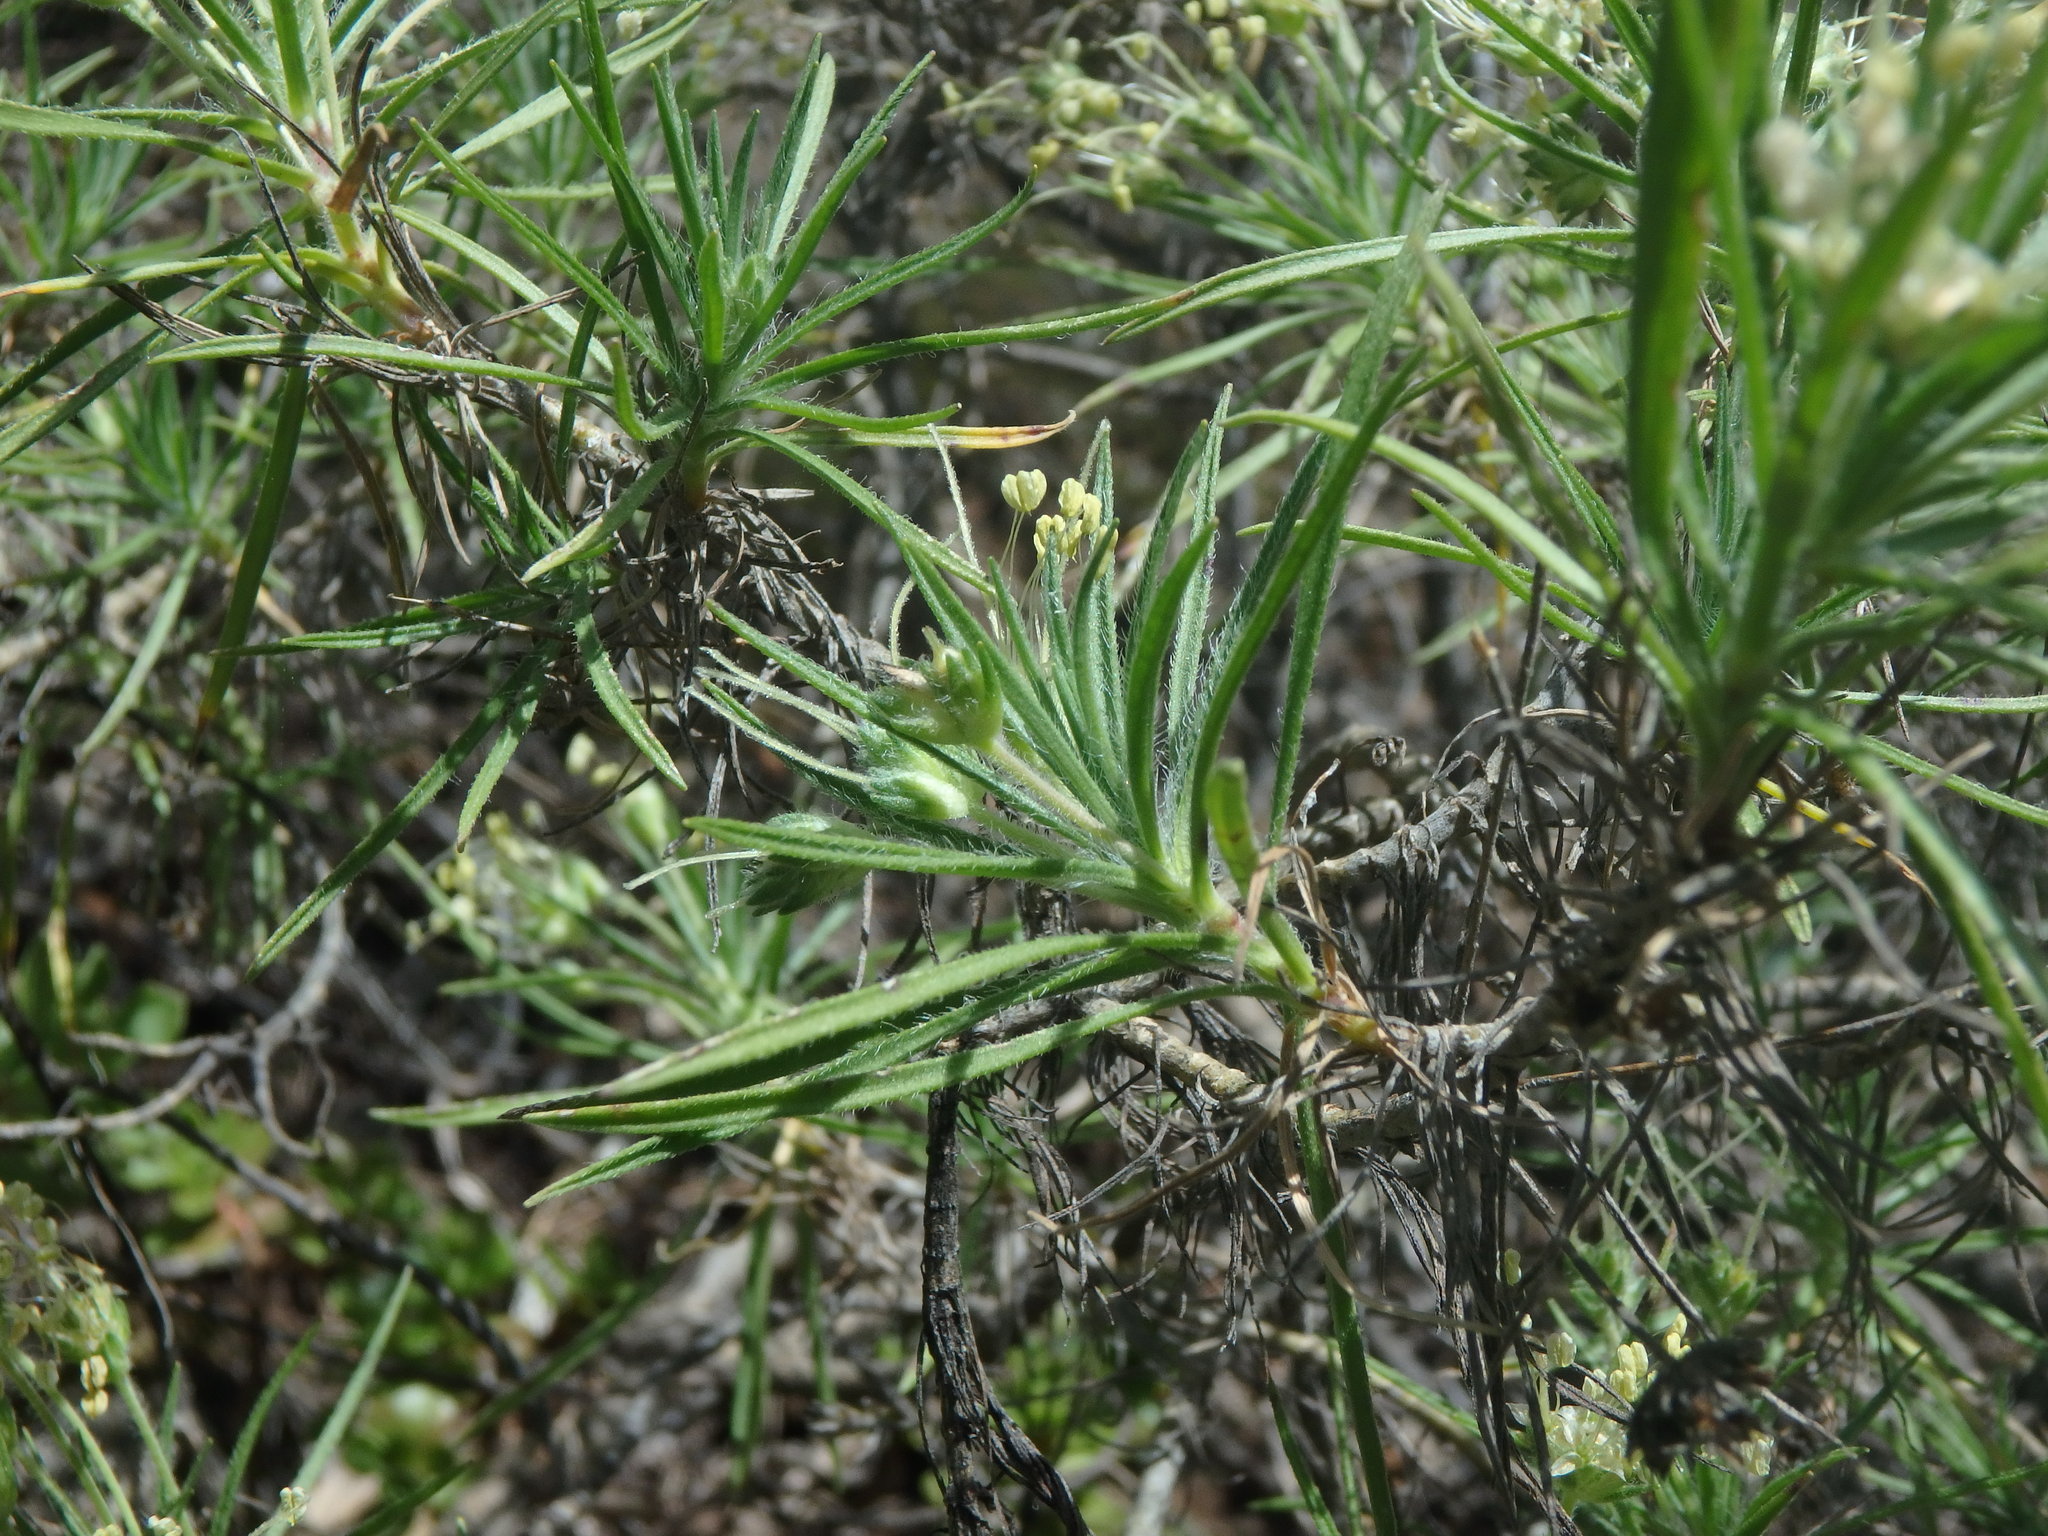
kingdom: Plantae
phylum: Tracheophyta
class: Magnoliopsida
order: Lamiales
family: Plantaginaceae
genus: Plantago
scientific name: Plantago arborescens
